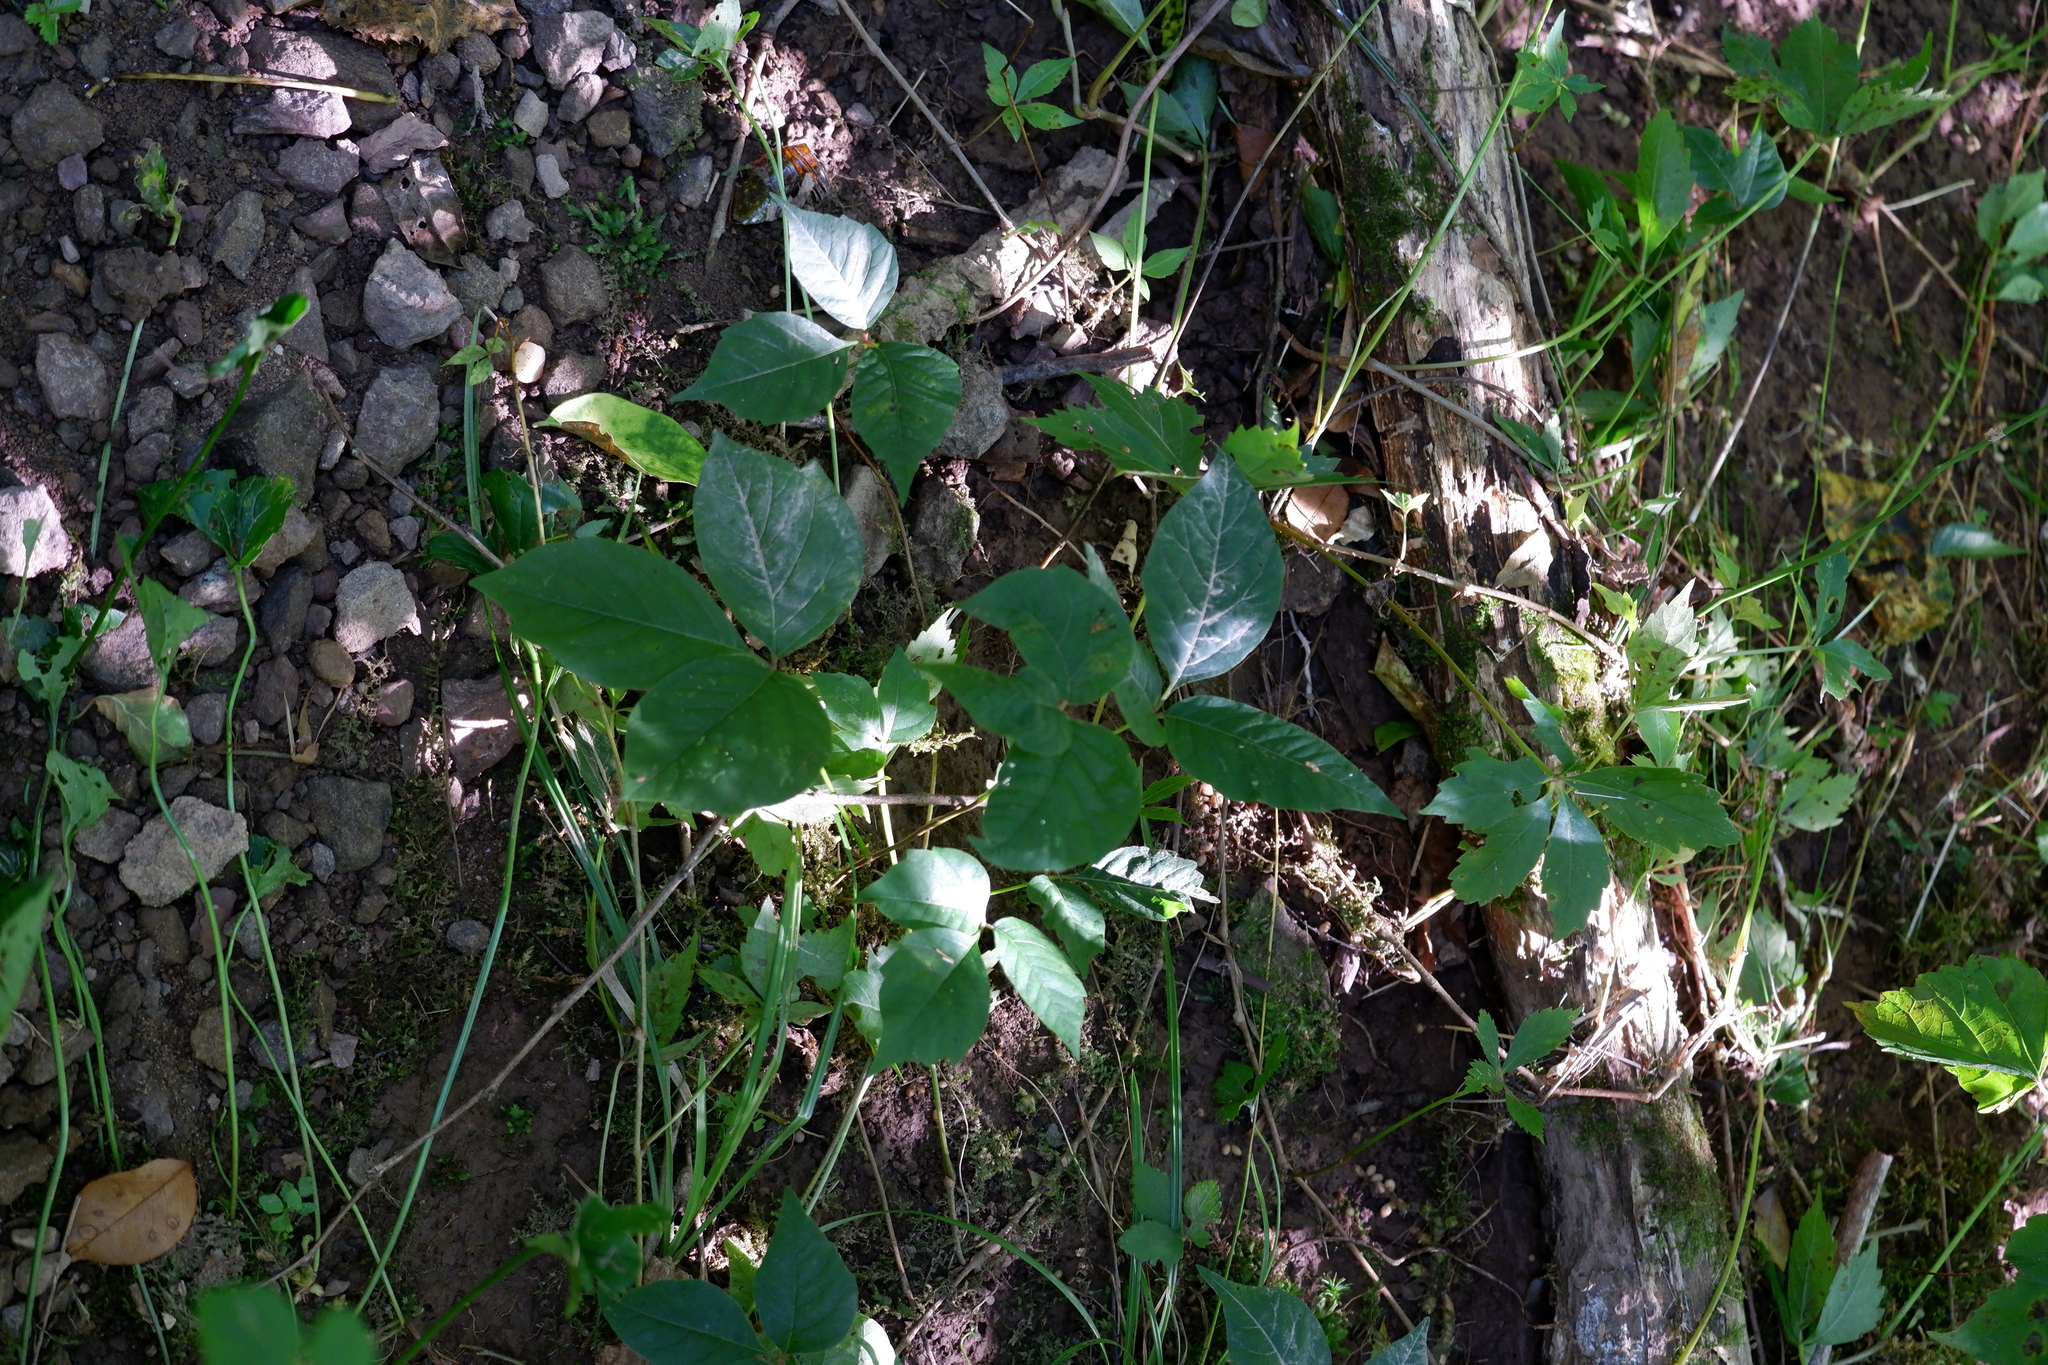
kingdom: Plantae
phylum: Tracheophyta
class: Magnoliopsida
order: Sapindales
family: Anacardiaceae
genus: Toxicodendron
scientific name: Toxicodendron radicans
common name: Poison ivy
